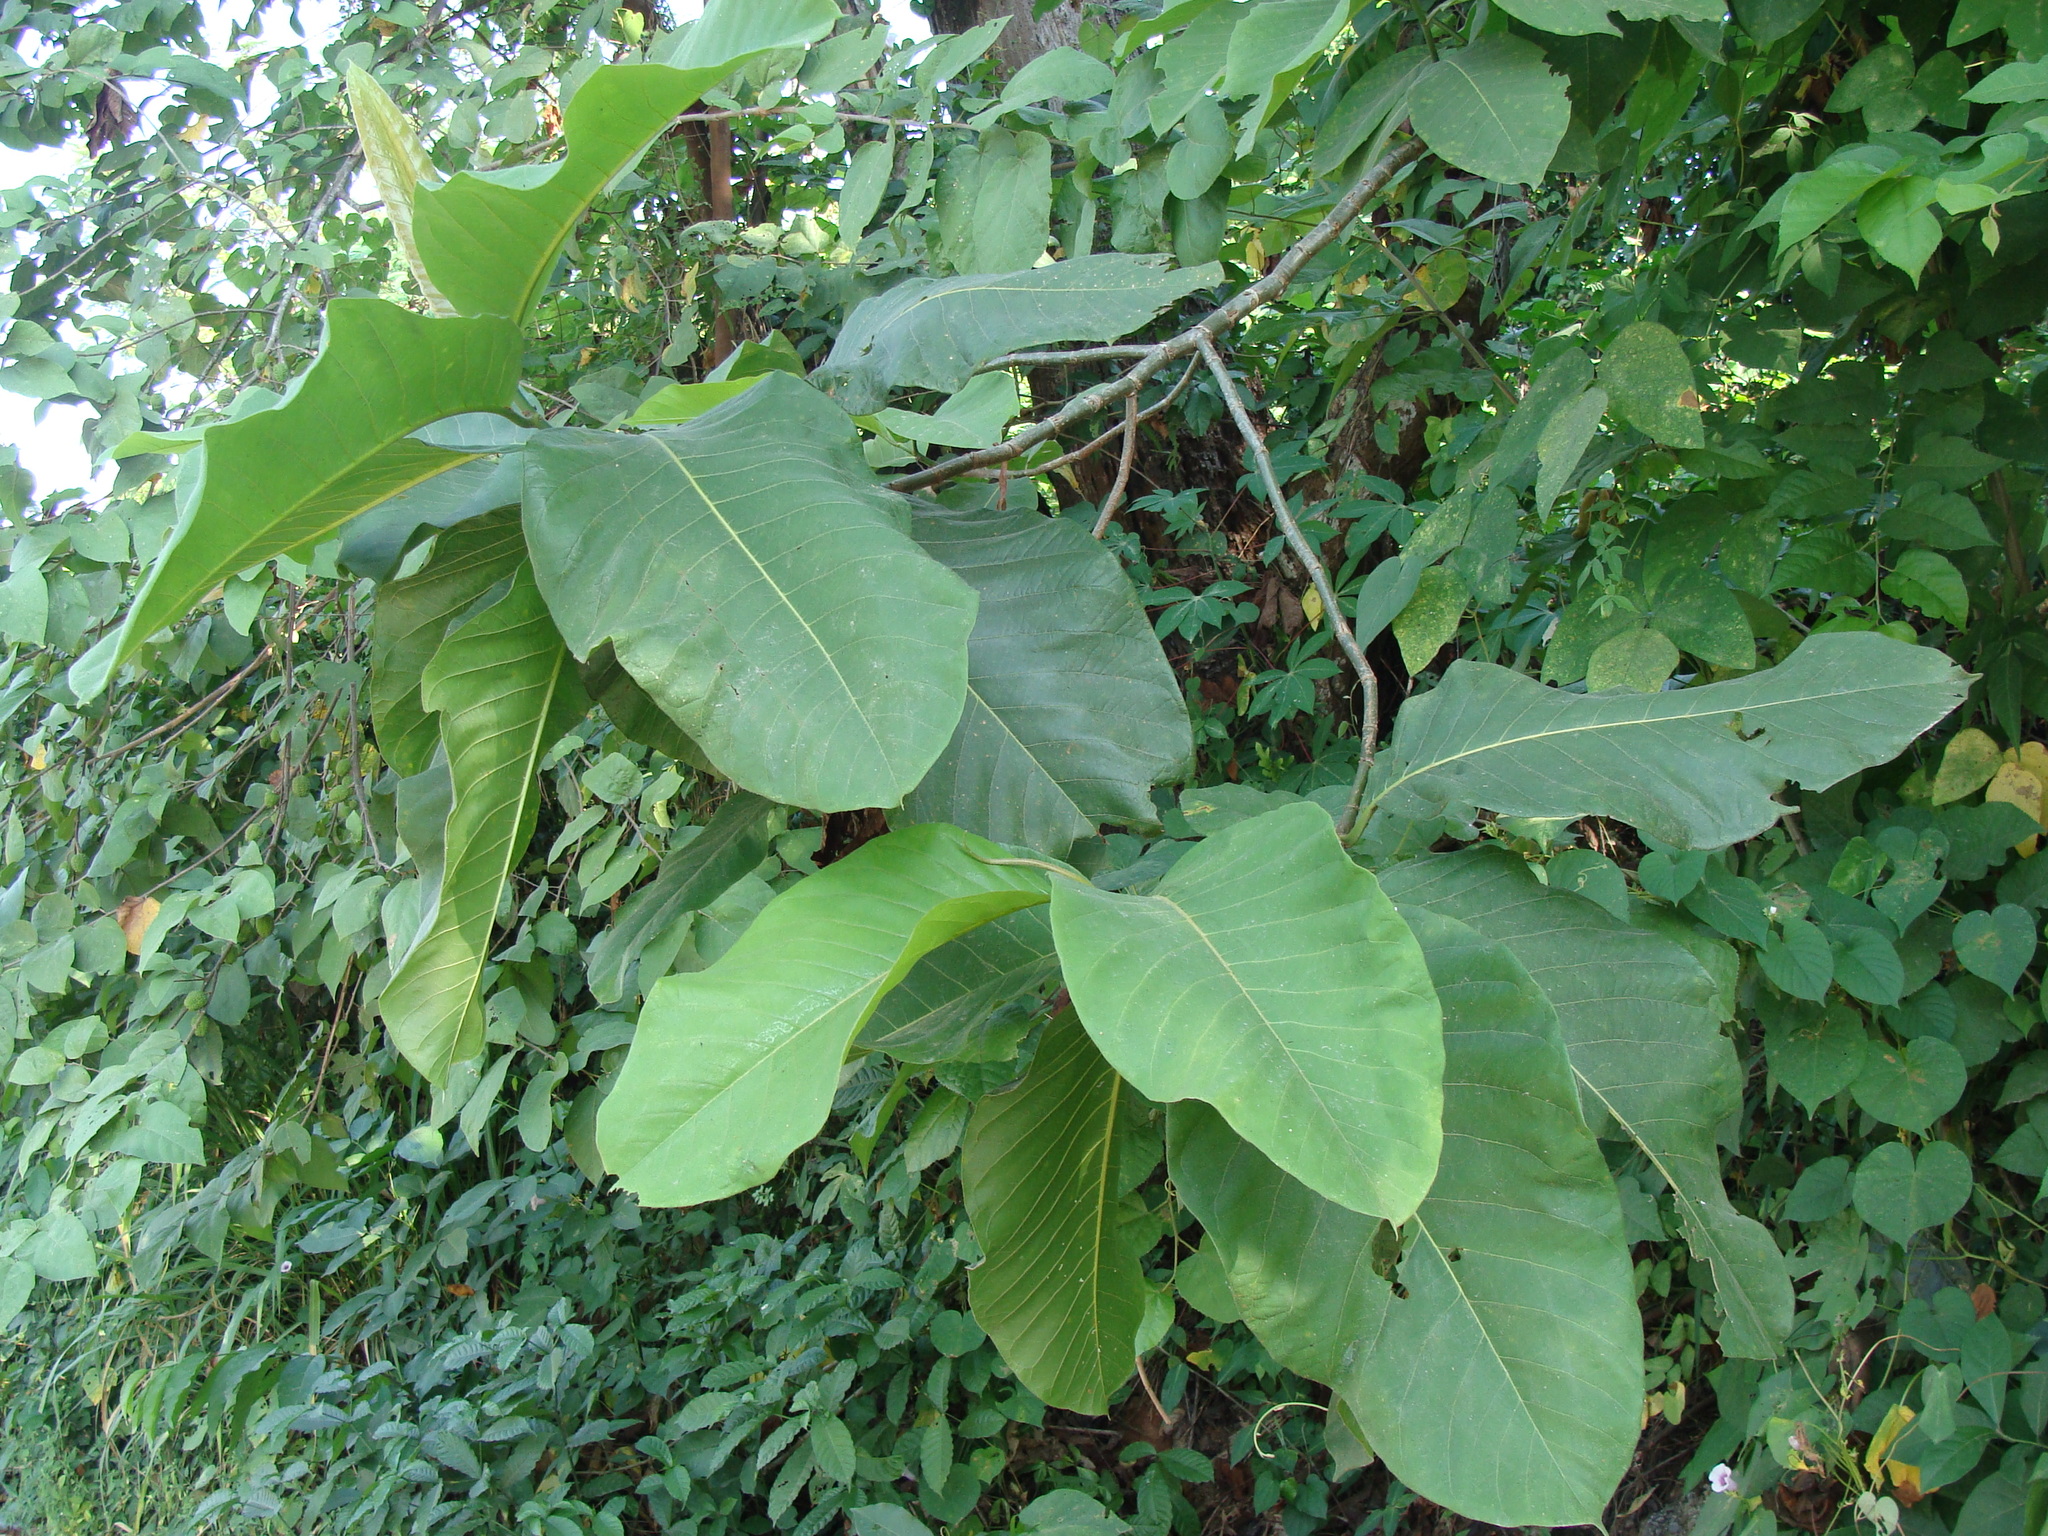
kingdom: Plantae
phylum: Tracheophyta
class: Magnoliopsida
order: Caryophyllales
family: Polygonaceae
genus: Triplaris
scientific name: Triplaris melaenodendron
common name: Long john
